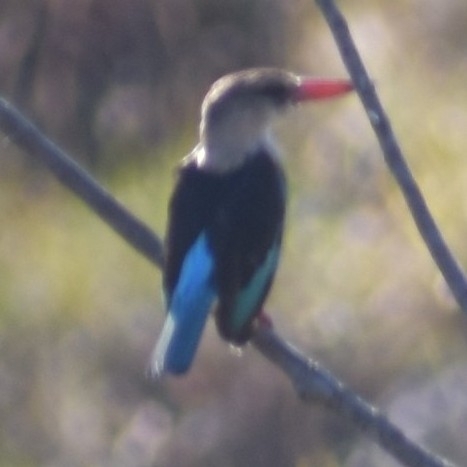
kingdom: Animalia
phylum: Chordata
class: Aves
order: Coraciiformes
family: Alcedinidae
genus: Halcyon
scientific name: Halcyon albiventris
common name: Brown-hooded kingfisher
